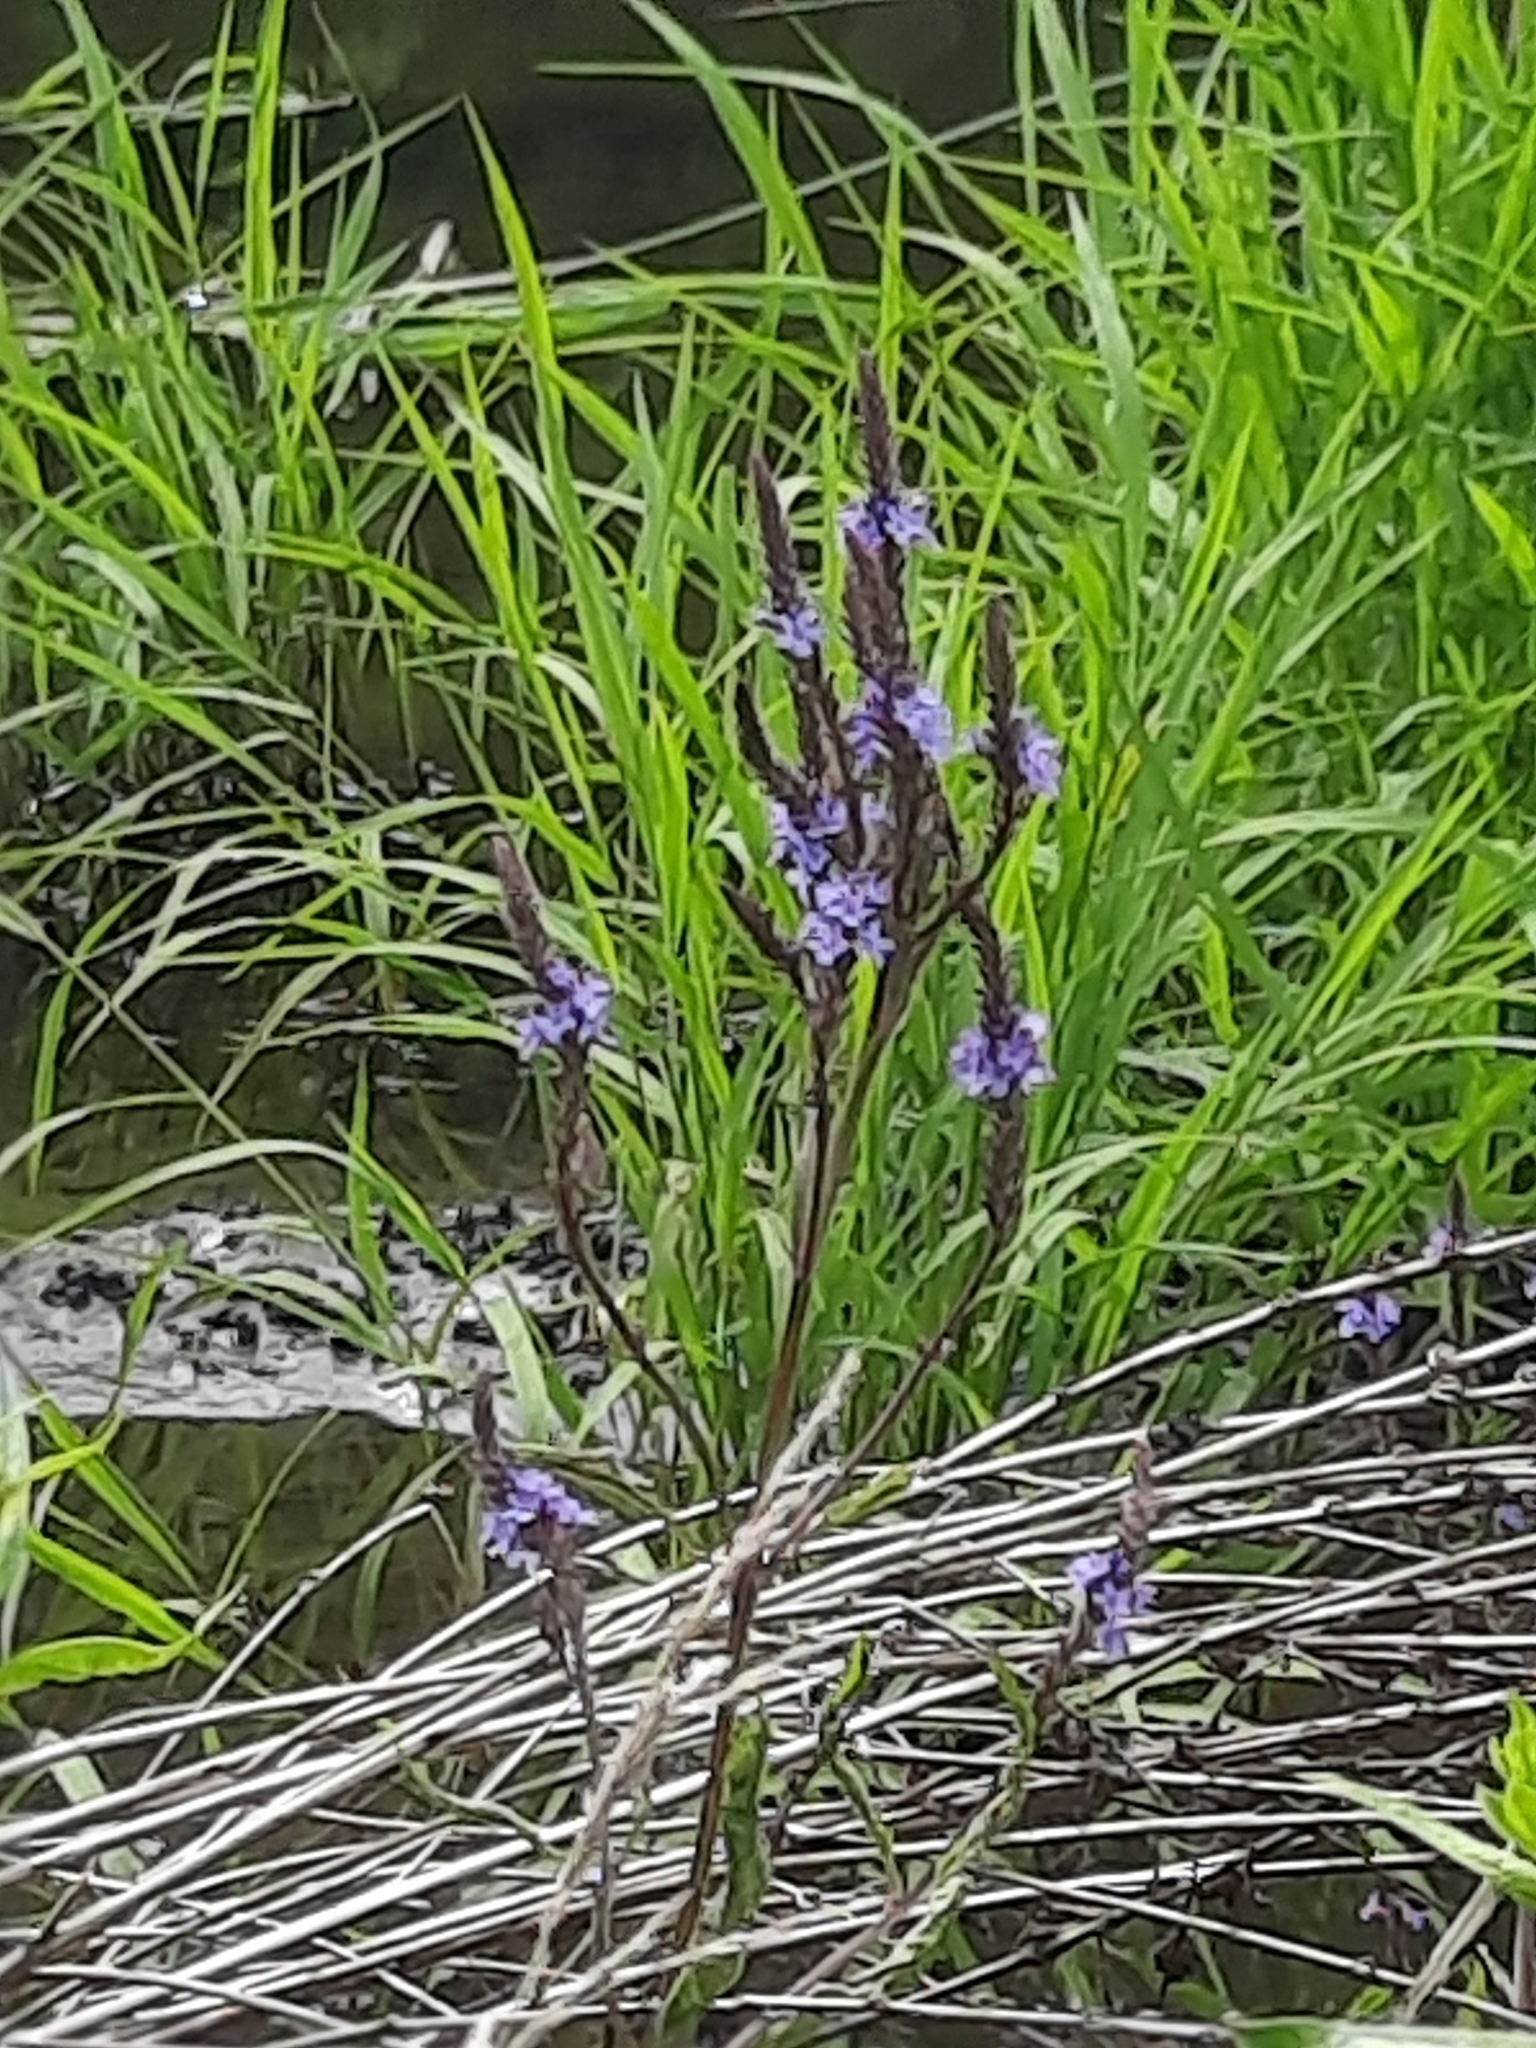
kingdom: Plantae
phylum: Tracheophyta
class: Magnoliopsida
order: Lamiales
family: Verbenaceae
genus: Verbena
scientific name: Verbena hastata
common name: American blue vervain
